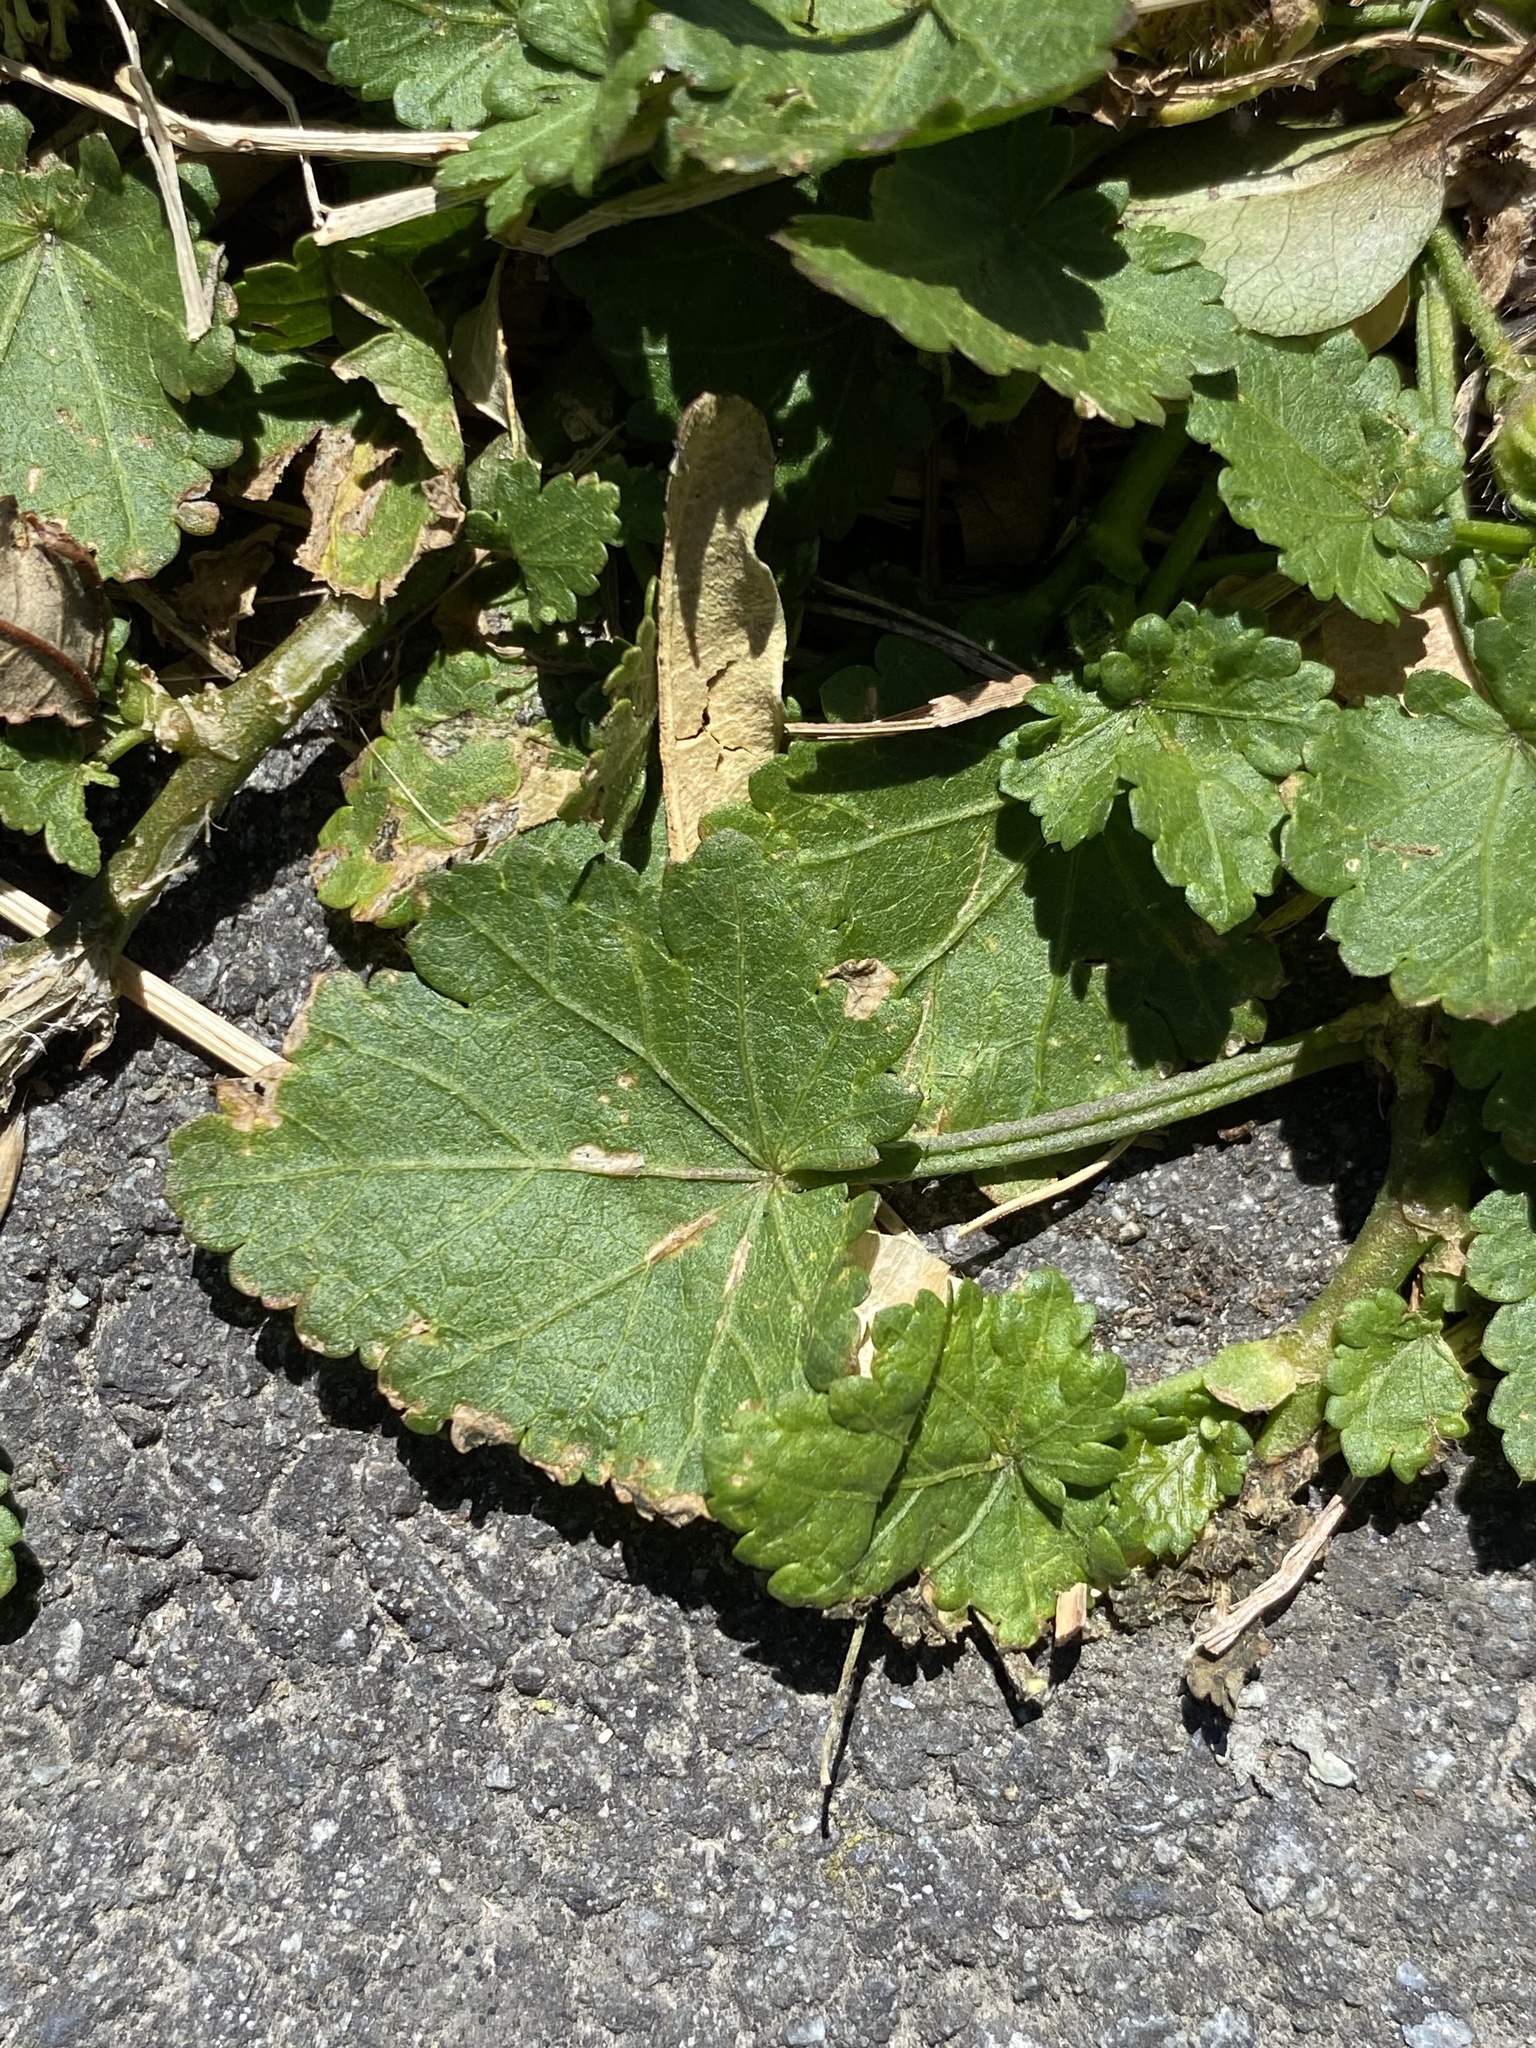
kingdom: Plantae
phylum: Tracheophyta
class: Magnoliopsida
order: Malvales
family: Malvaceae
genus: Modiola
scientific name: Modiola caroliniana
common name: Carolina bristlemallow
